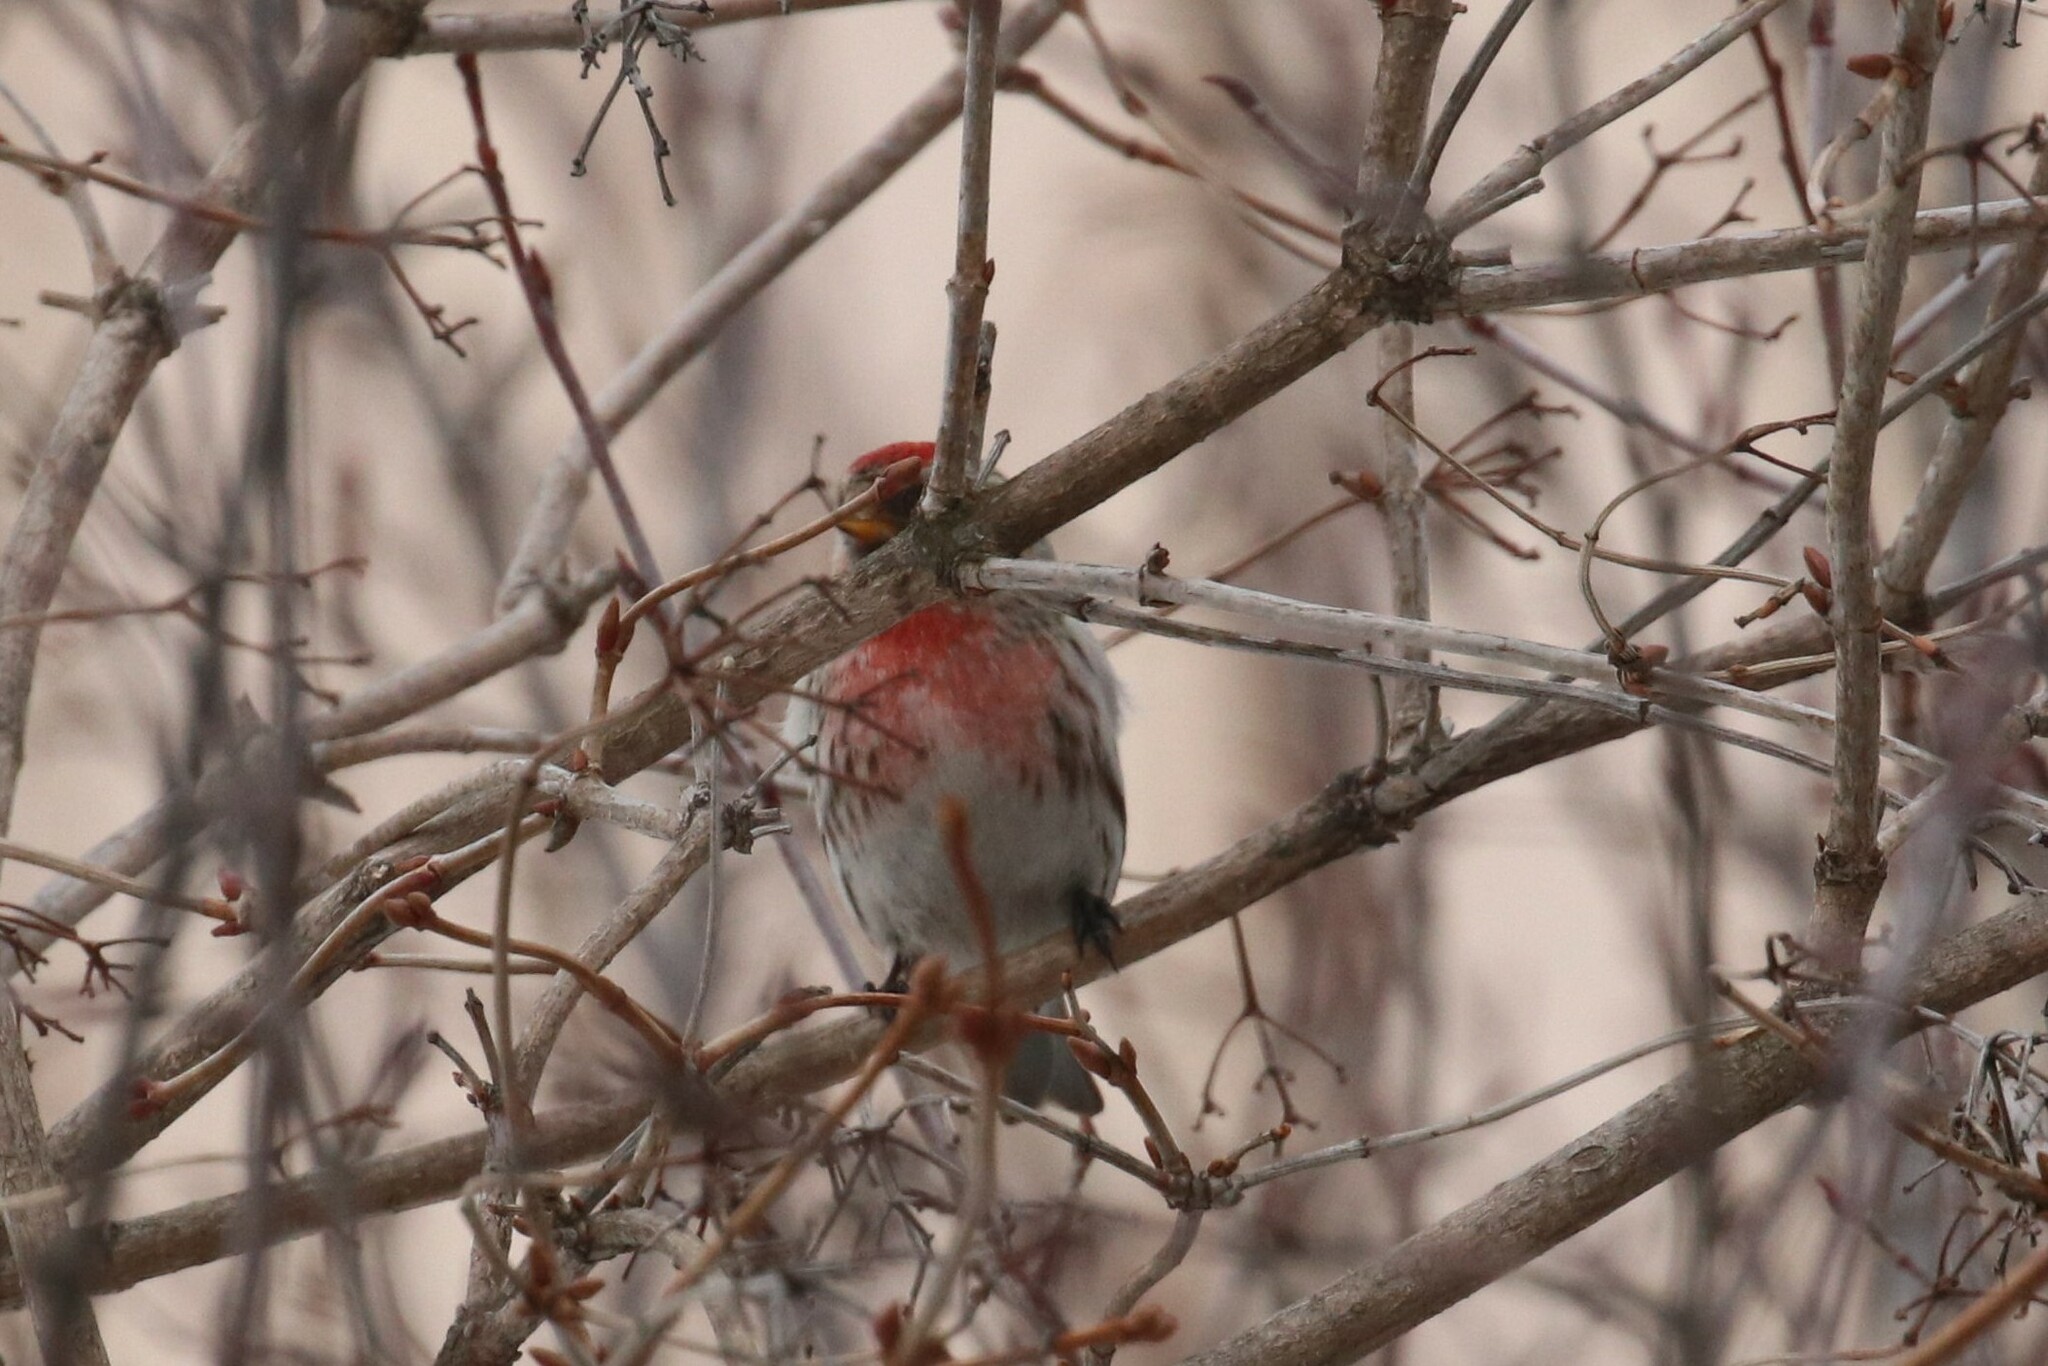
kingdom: Animalia
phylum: Chordata
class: Aves
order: Passeriformes
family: Fringillidae
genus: Acanthis
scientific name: Acanthis flammea
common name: Common redpoll
